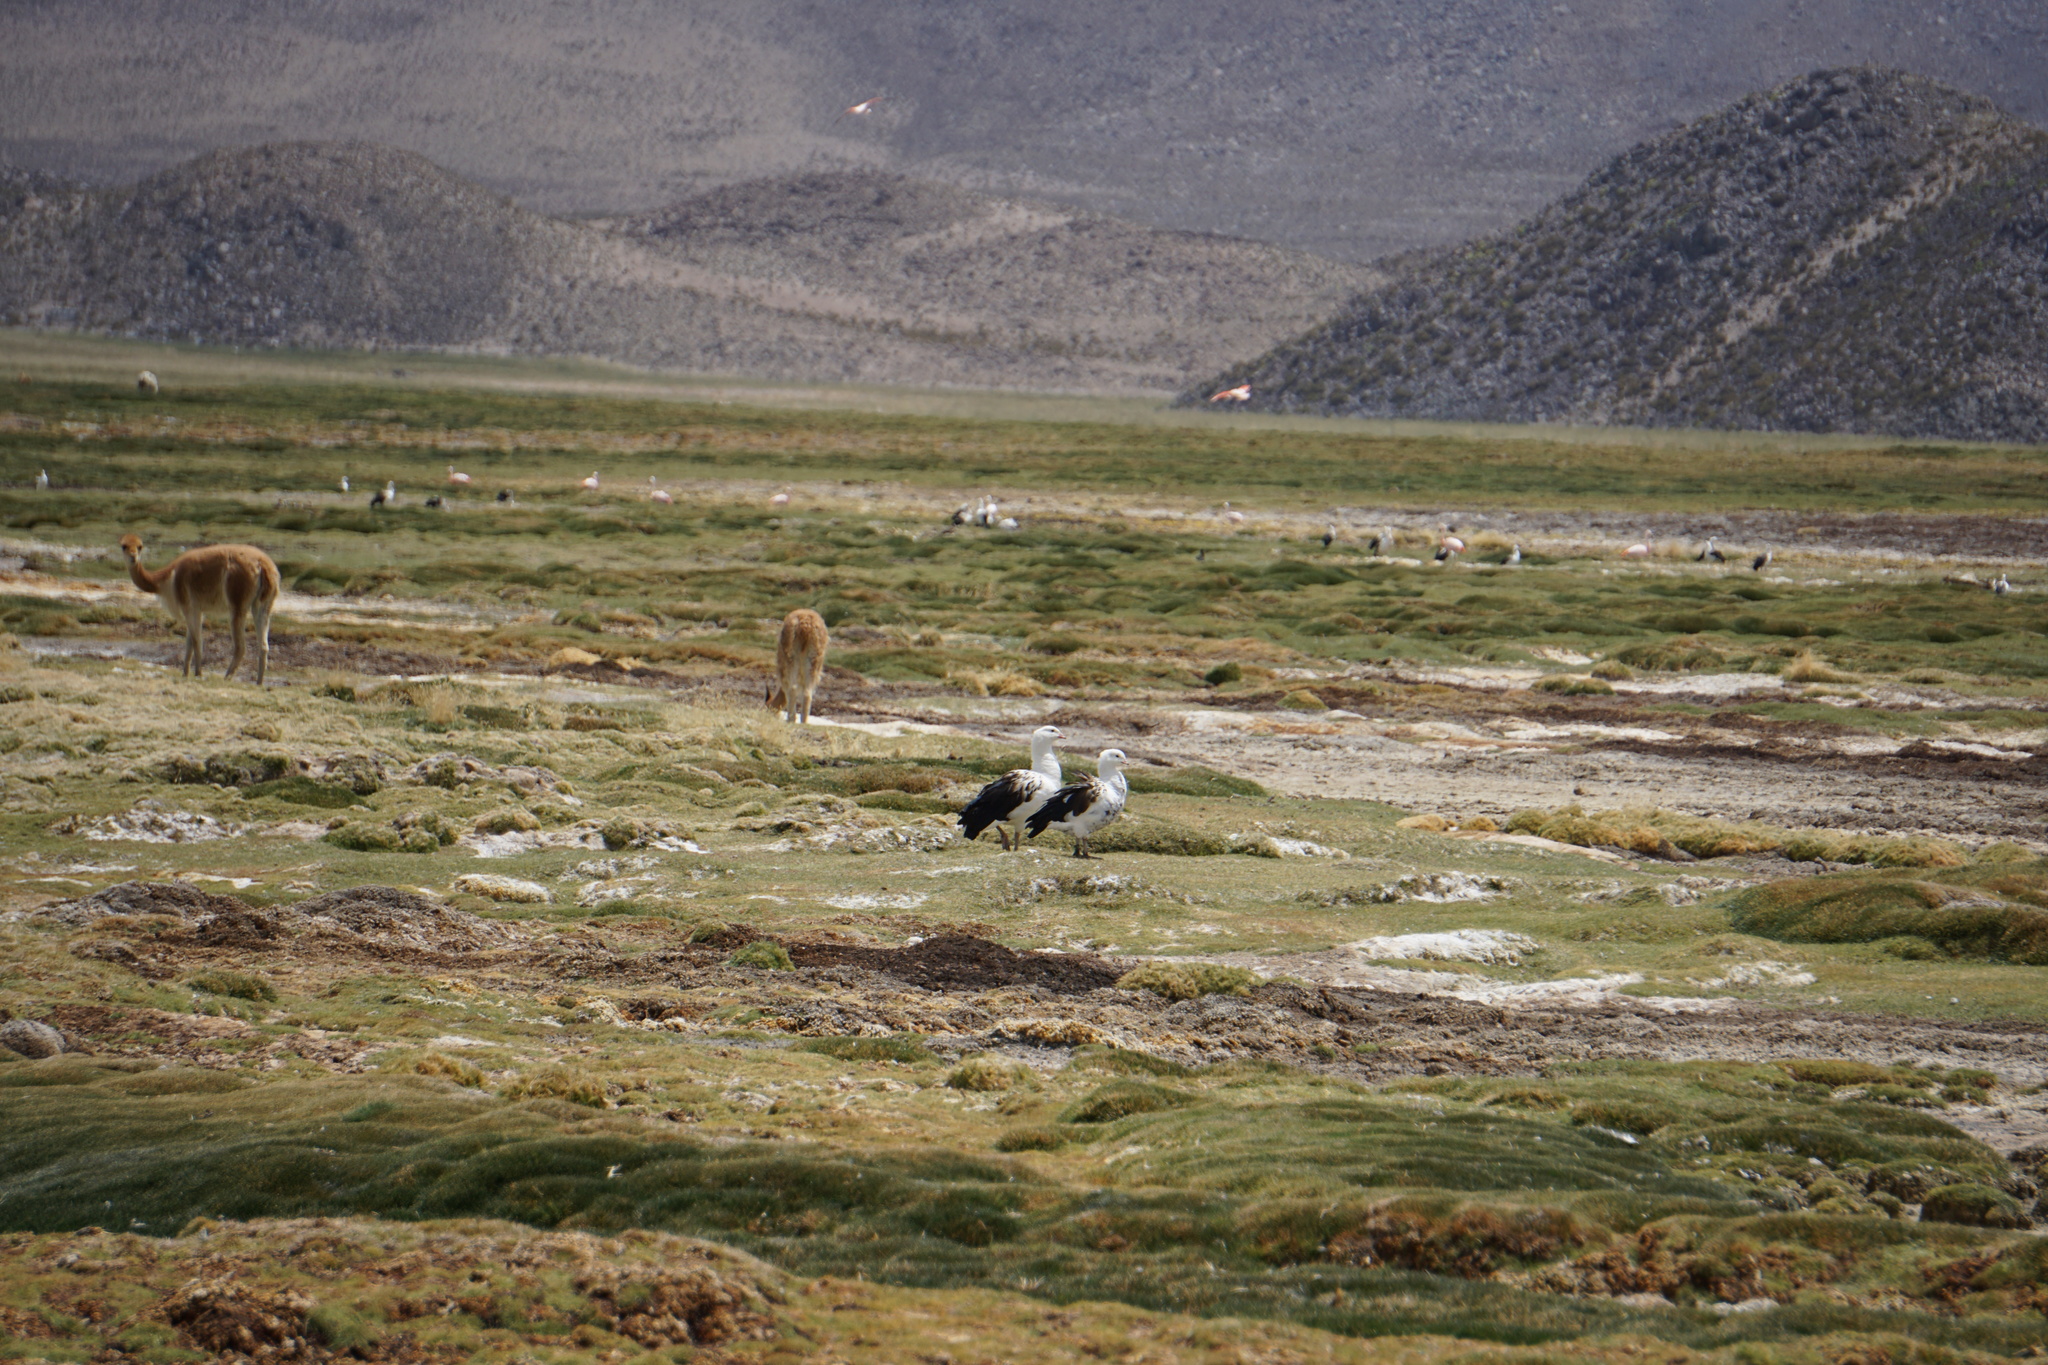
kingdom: Animalia
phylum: Chordata
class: Aves
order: Anseriformes
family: Anatidae
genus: Chloephaga
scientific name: Chloephaga melanoptera
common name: Andean goose
